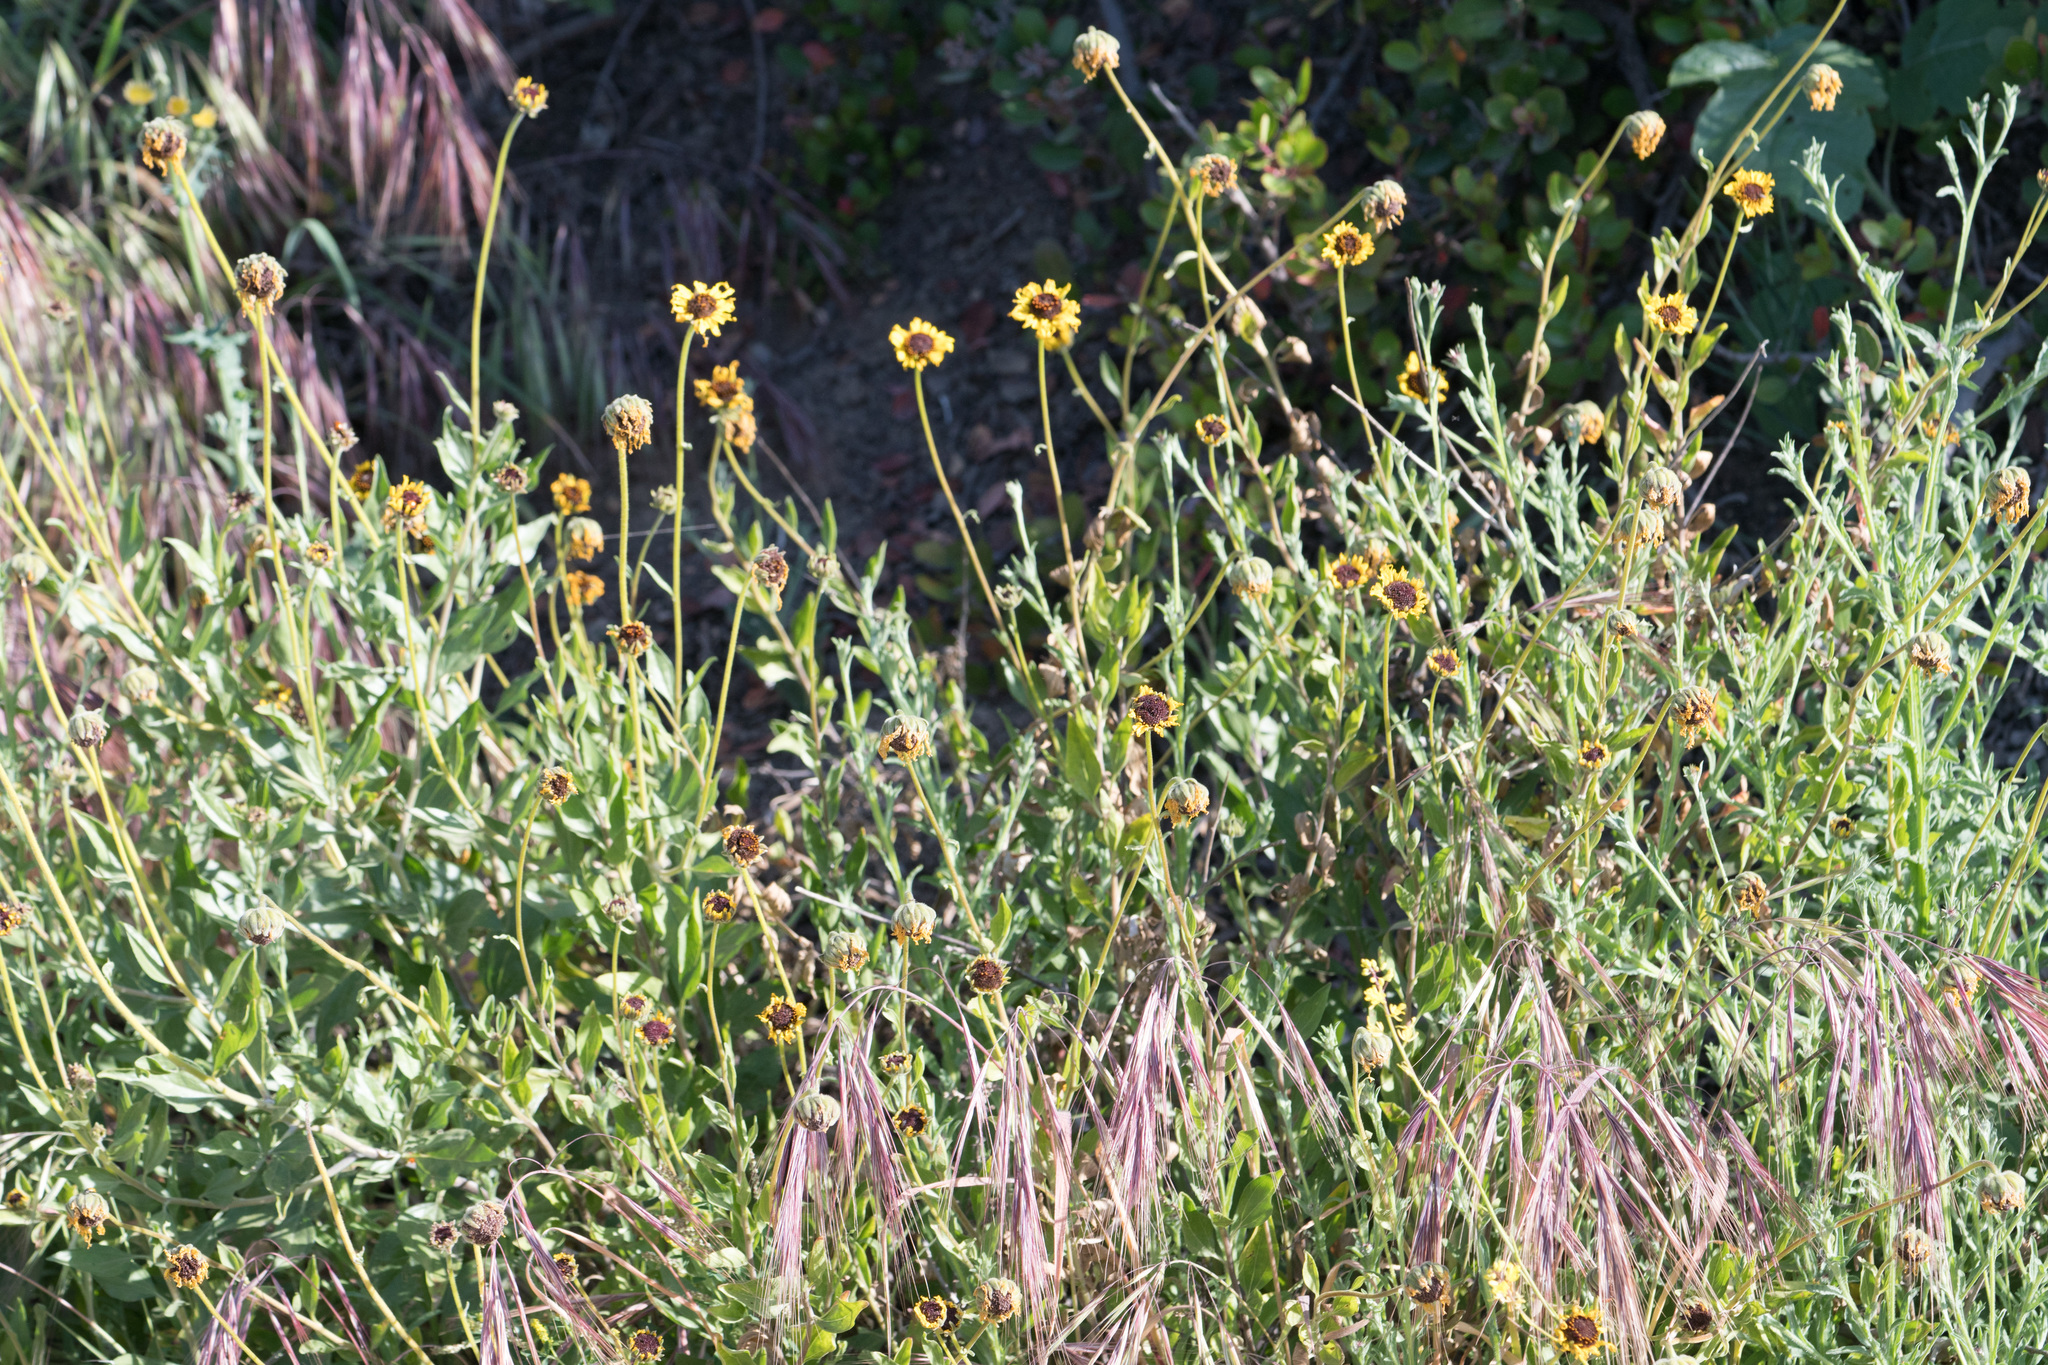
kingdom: Plantae
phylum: Tracheophyta
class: Magnoliopsida
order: Asterales
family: Asteraceae
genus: Encelia
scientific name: Encelia californica
